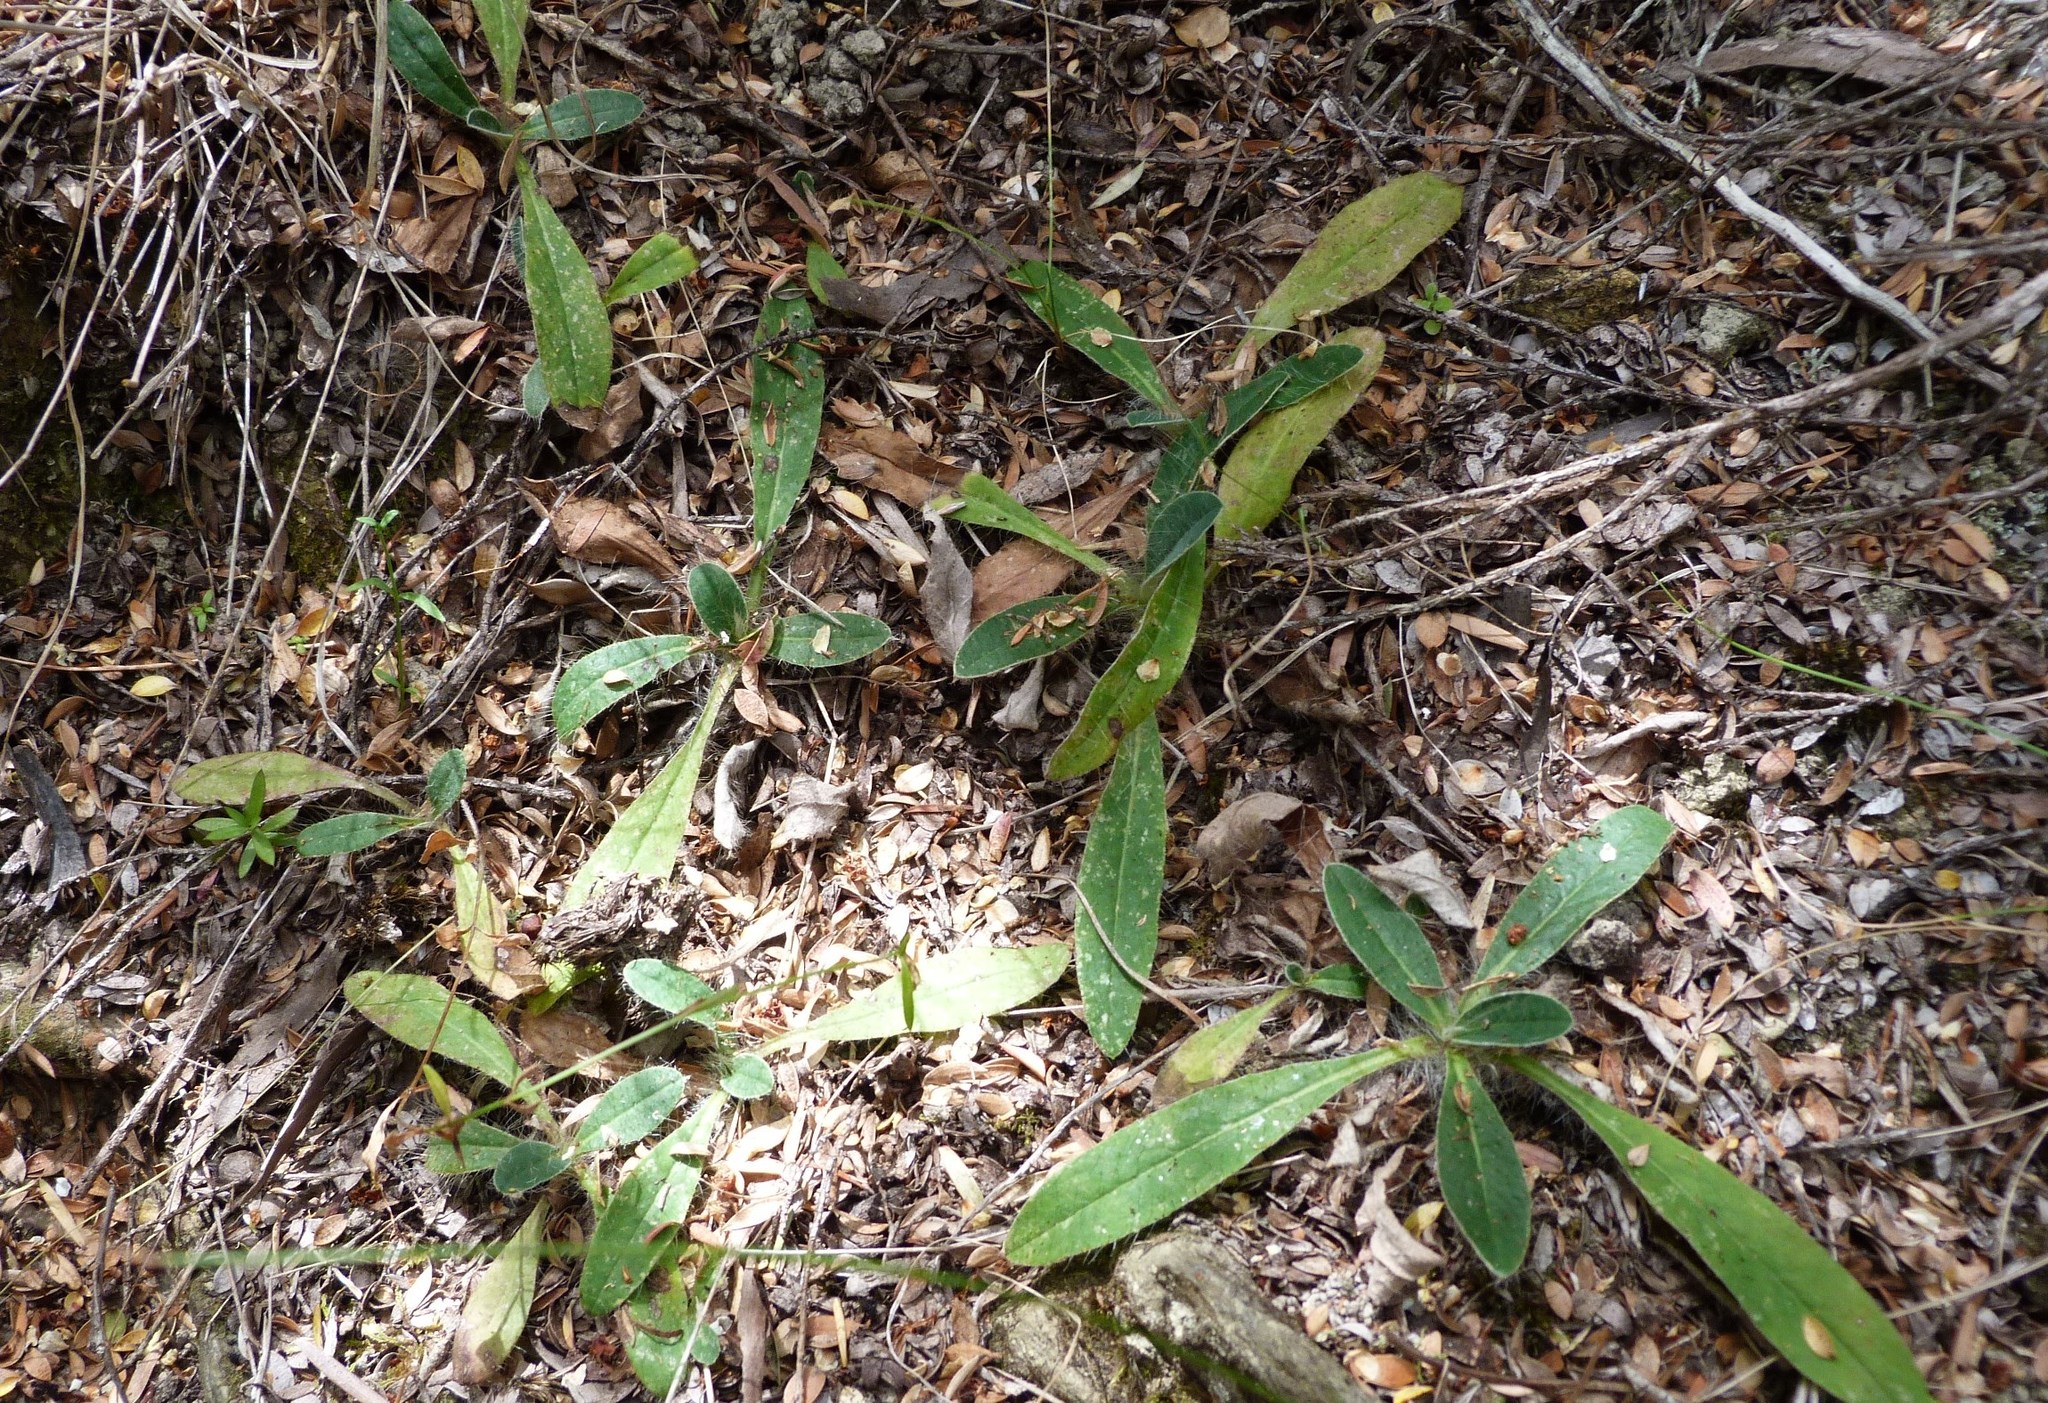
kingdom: Plantae
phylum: Tracheophyta
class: Magnoliopsida
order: Asterales
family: Asteraceae
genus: Pilosella
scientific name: Pilosella officinarum
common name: Mouse-ear hawkweed
